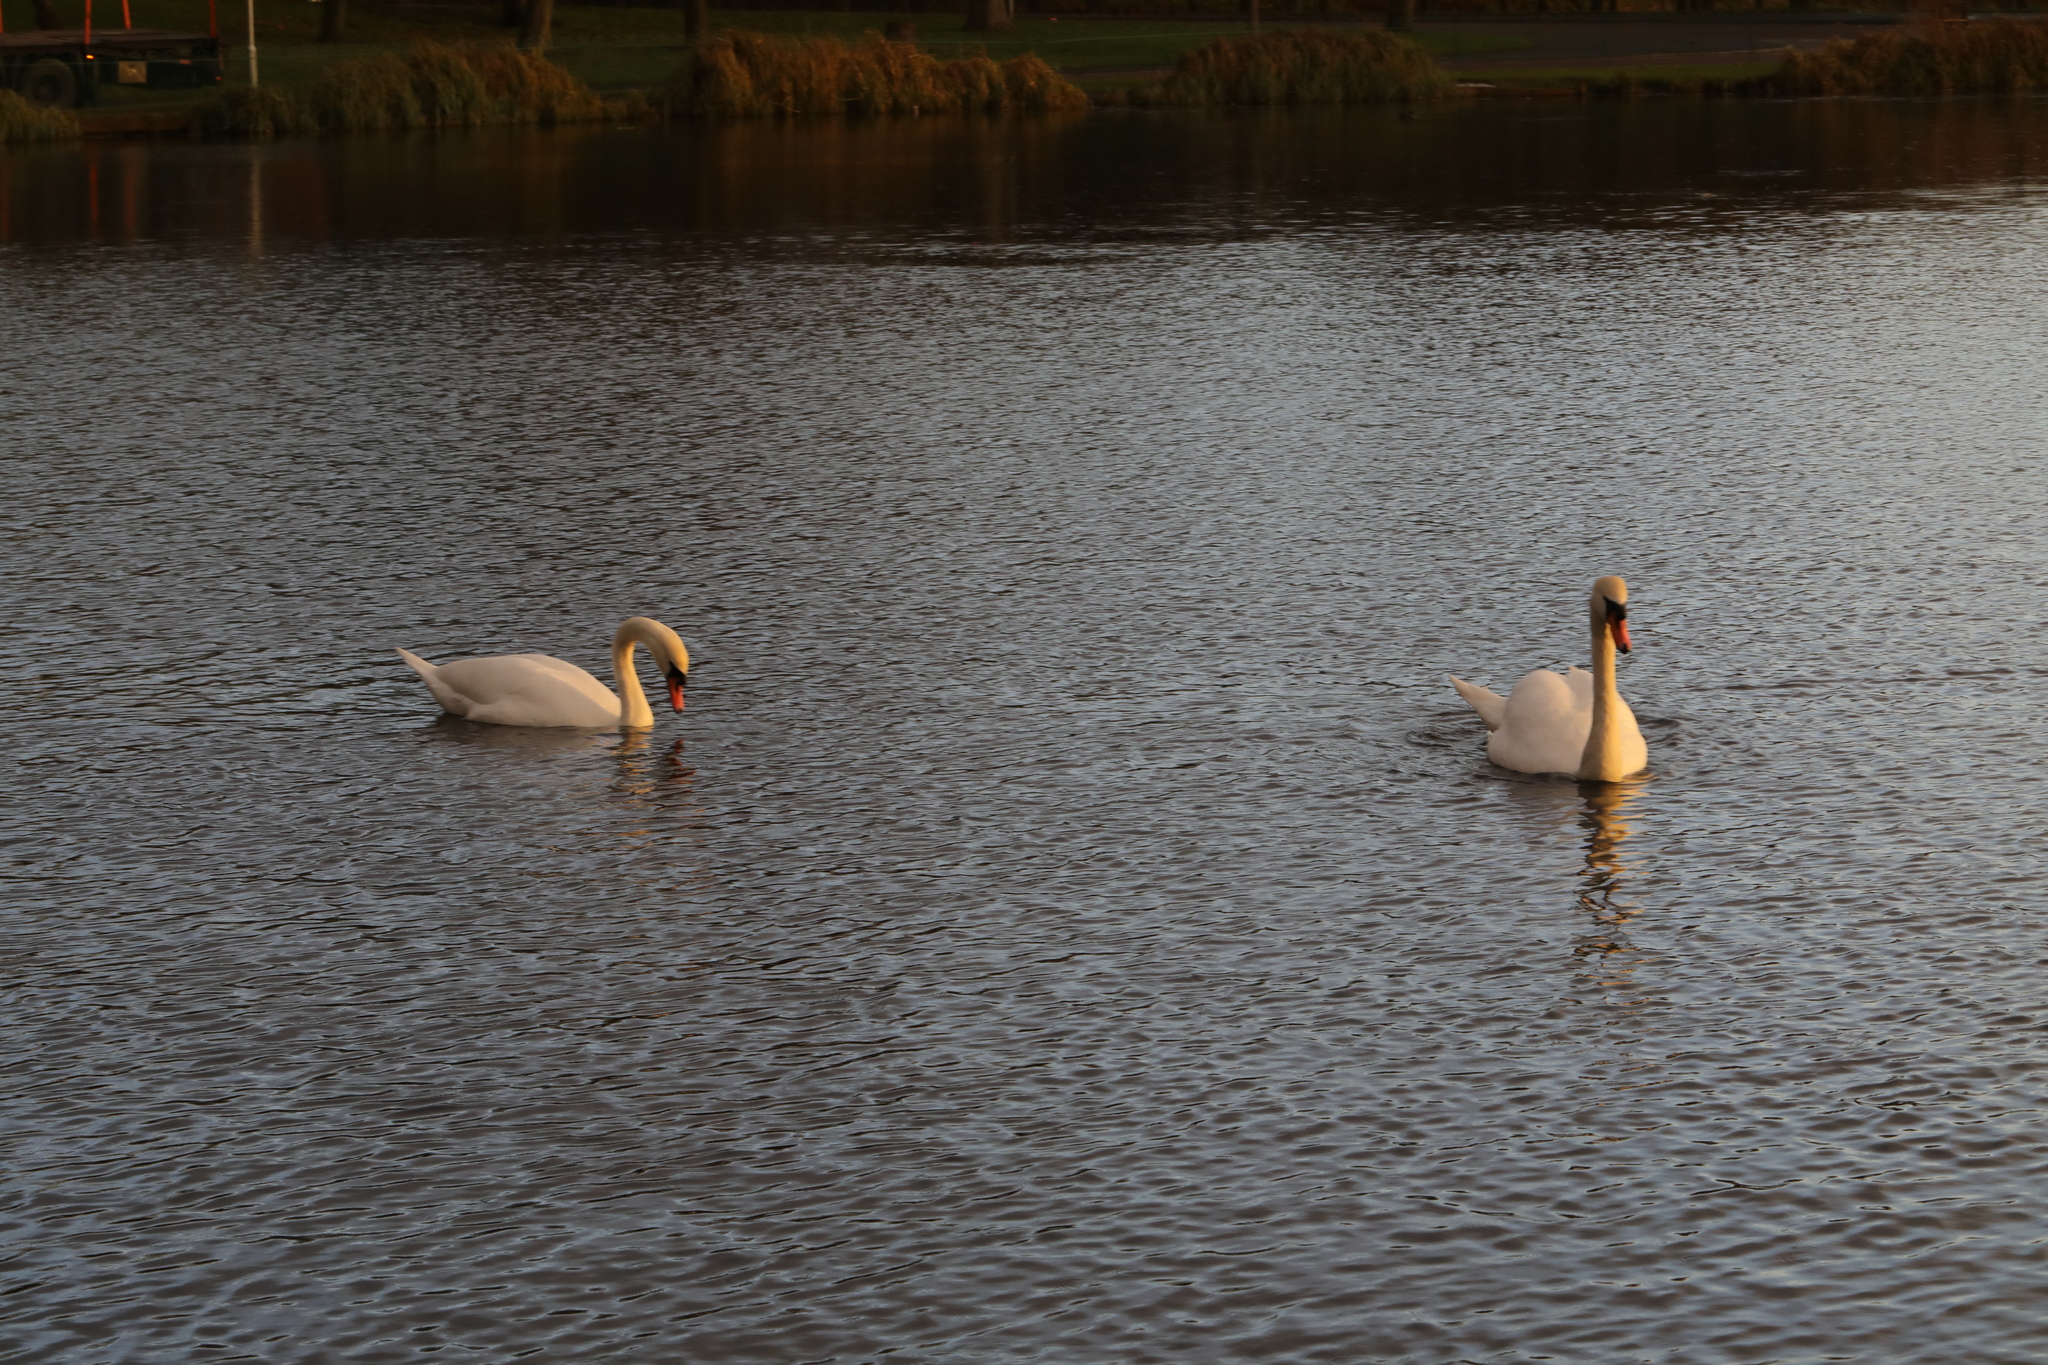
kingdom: Animalia
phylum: Chordata
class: Aves
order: Anseriformes
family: Anatidae
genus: Cygnus
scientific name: Cygnus olor
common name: Mute swan
